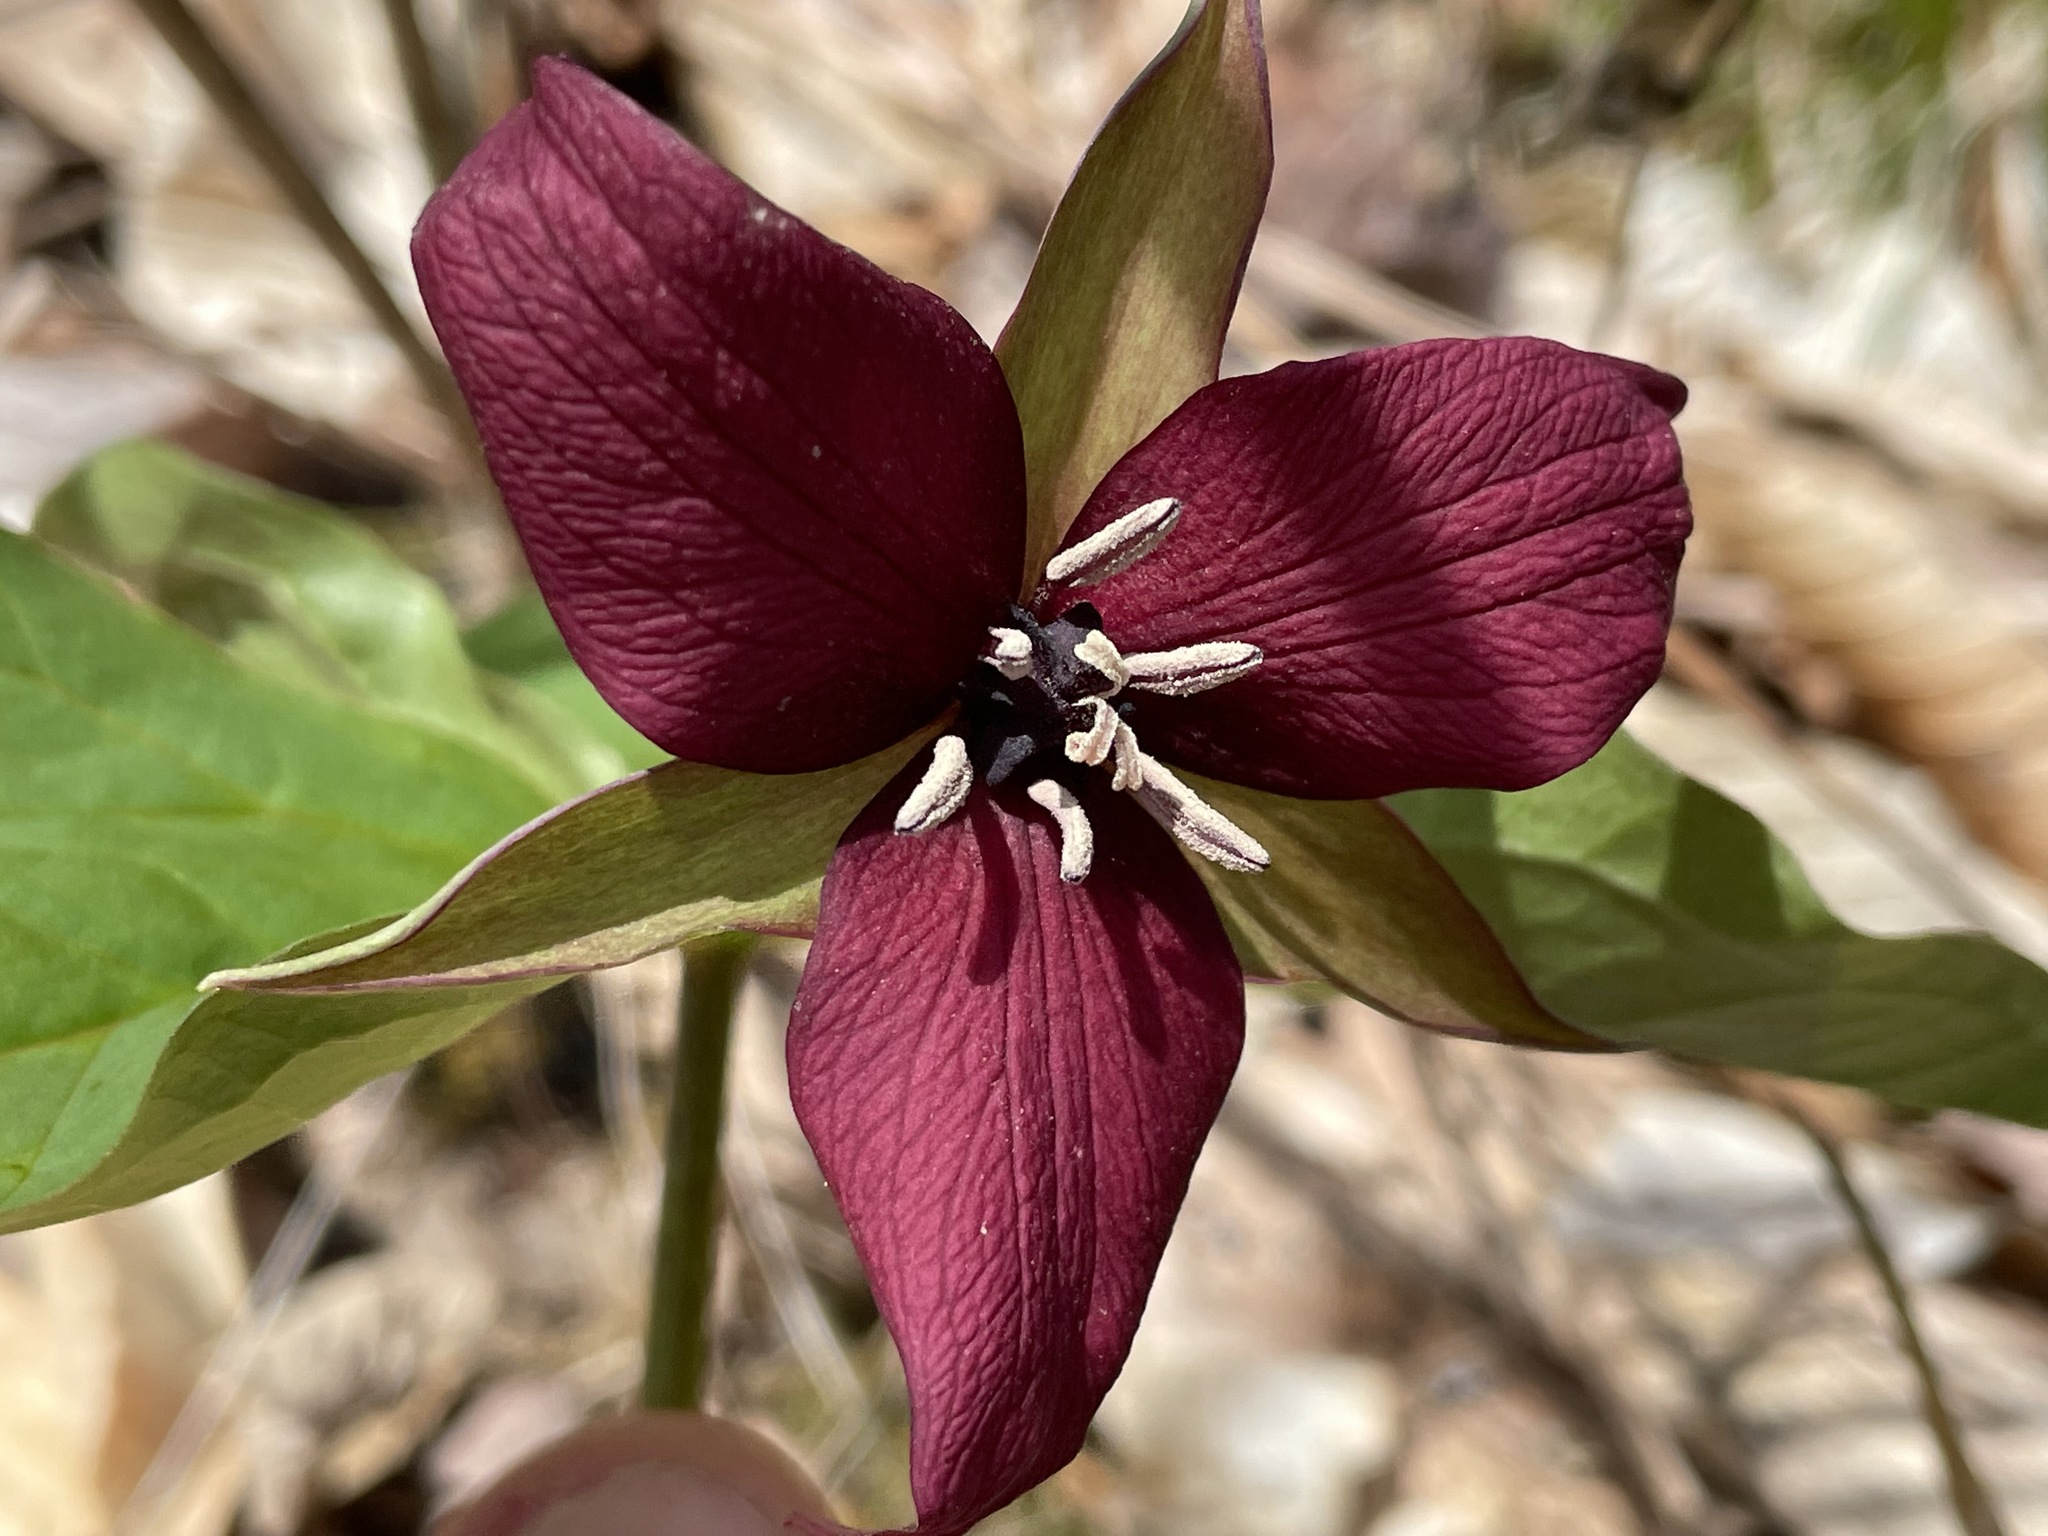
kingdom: Plantae
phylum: Tracheophyta
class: Liliopsida
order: Liliales
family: Melanthiaceae
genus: Trillium
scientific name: Trillium erectum
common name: Purple trillium
